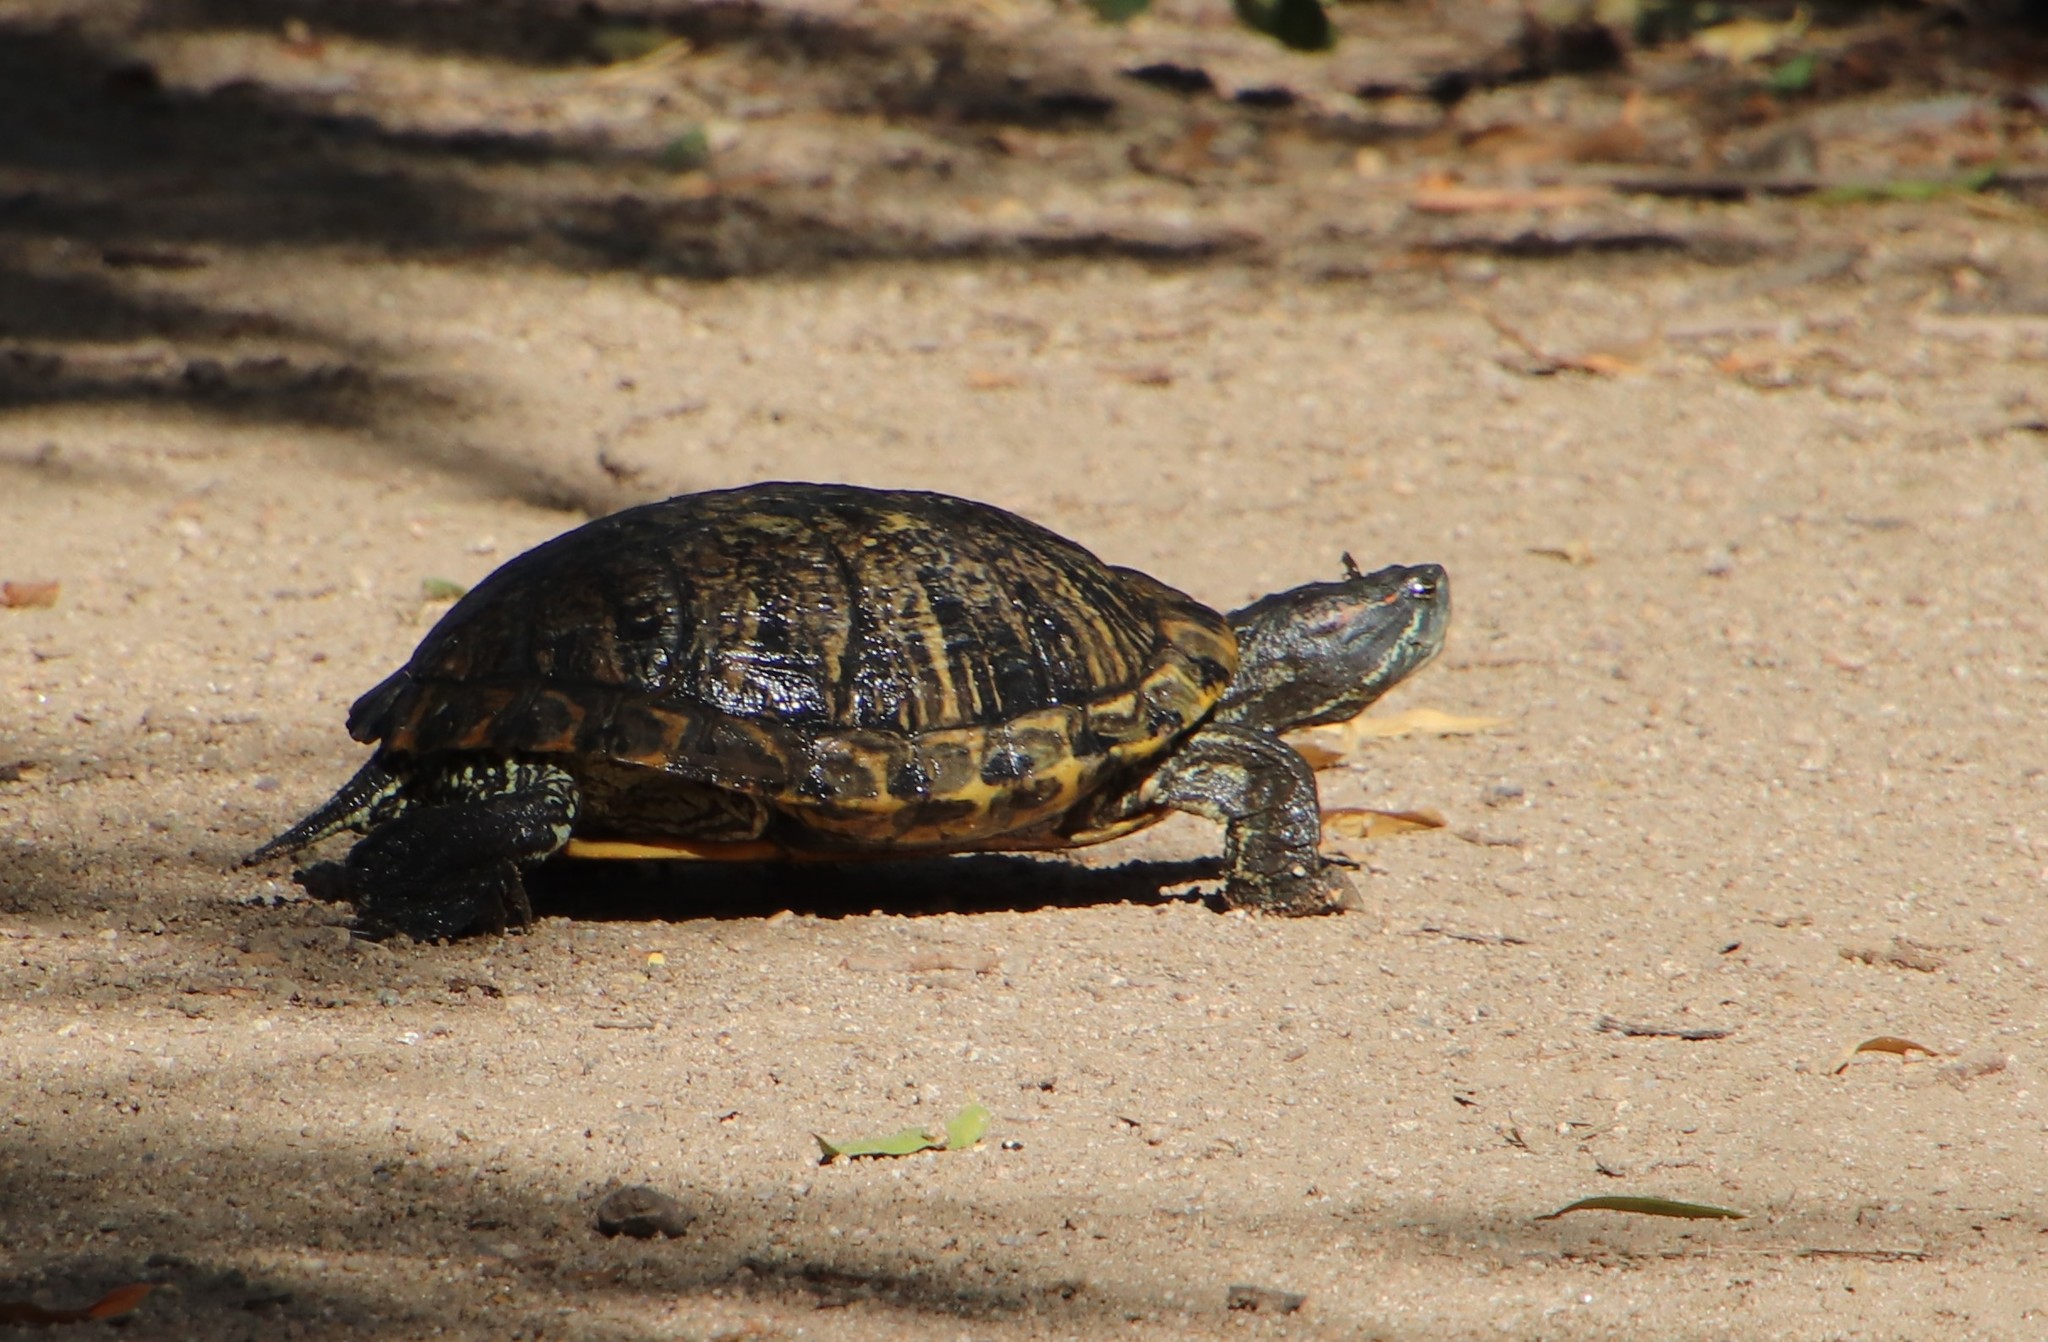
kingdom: Animalia
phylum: Chordata
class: Testudines
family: Emydidae
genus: Trachemys
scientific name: Trachemys scripta
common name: Slider
